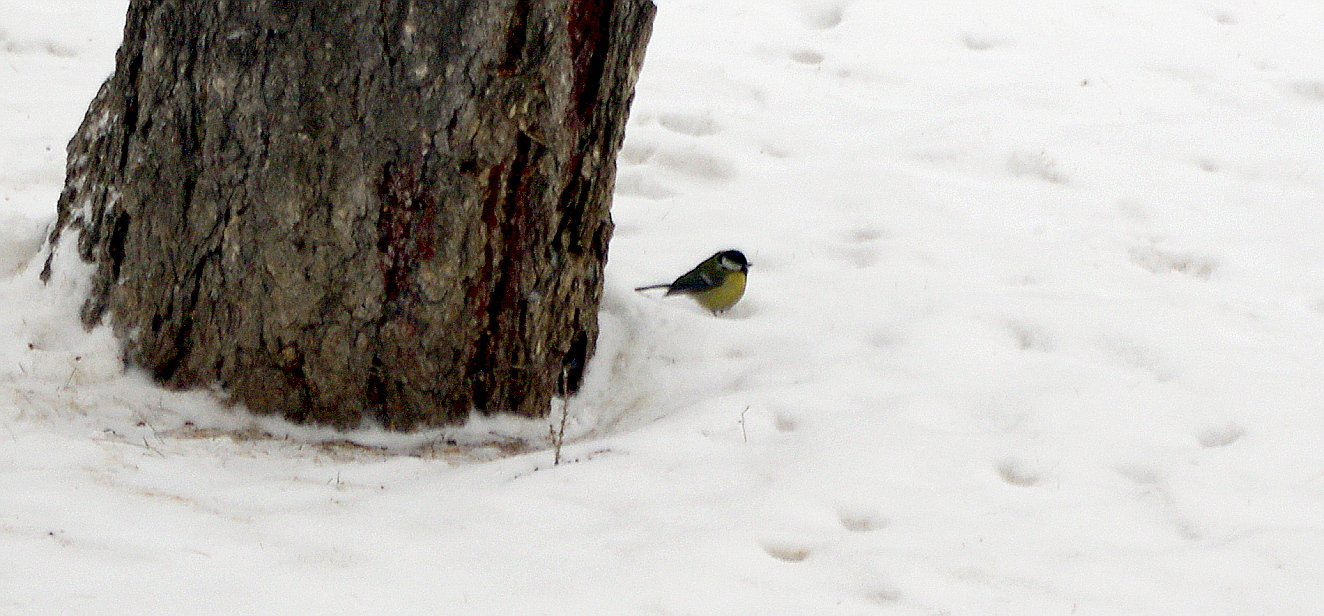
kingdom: Animalia
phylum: Chordata
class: Aves
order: Passeriformes
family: Paridae
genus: Parus
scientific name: Parus major
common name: Great tit
